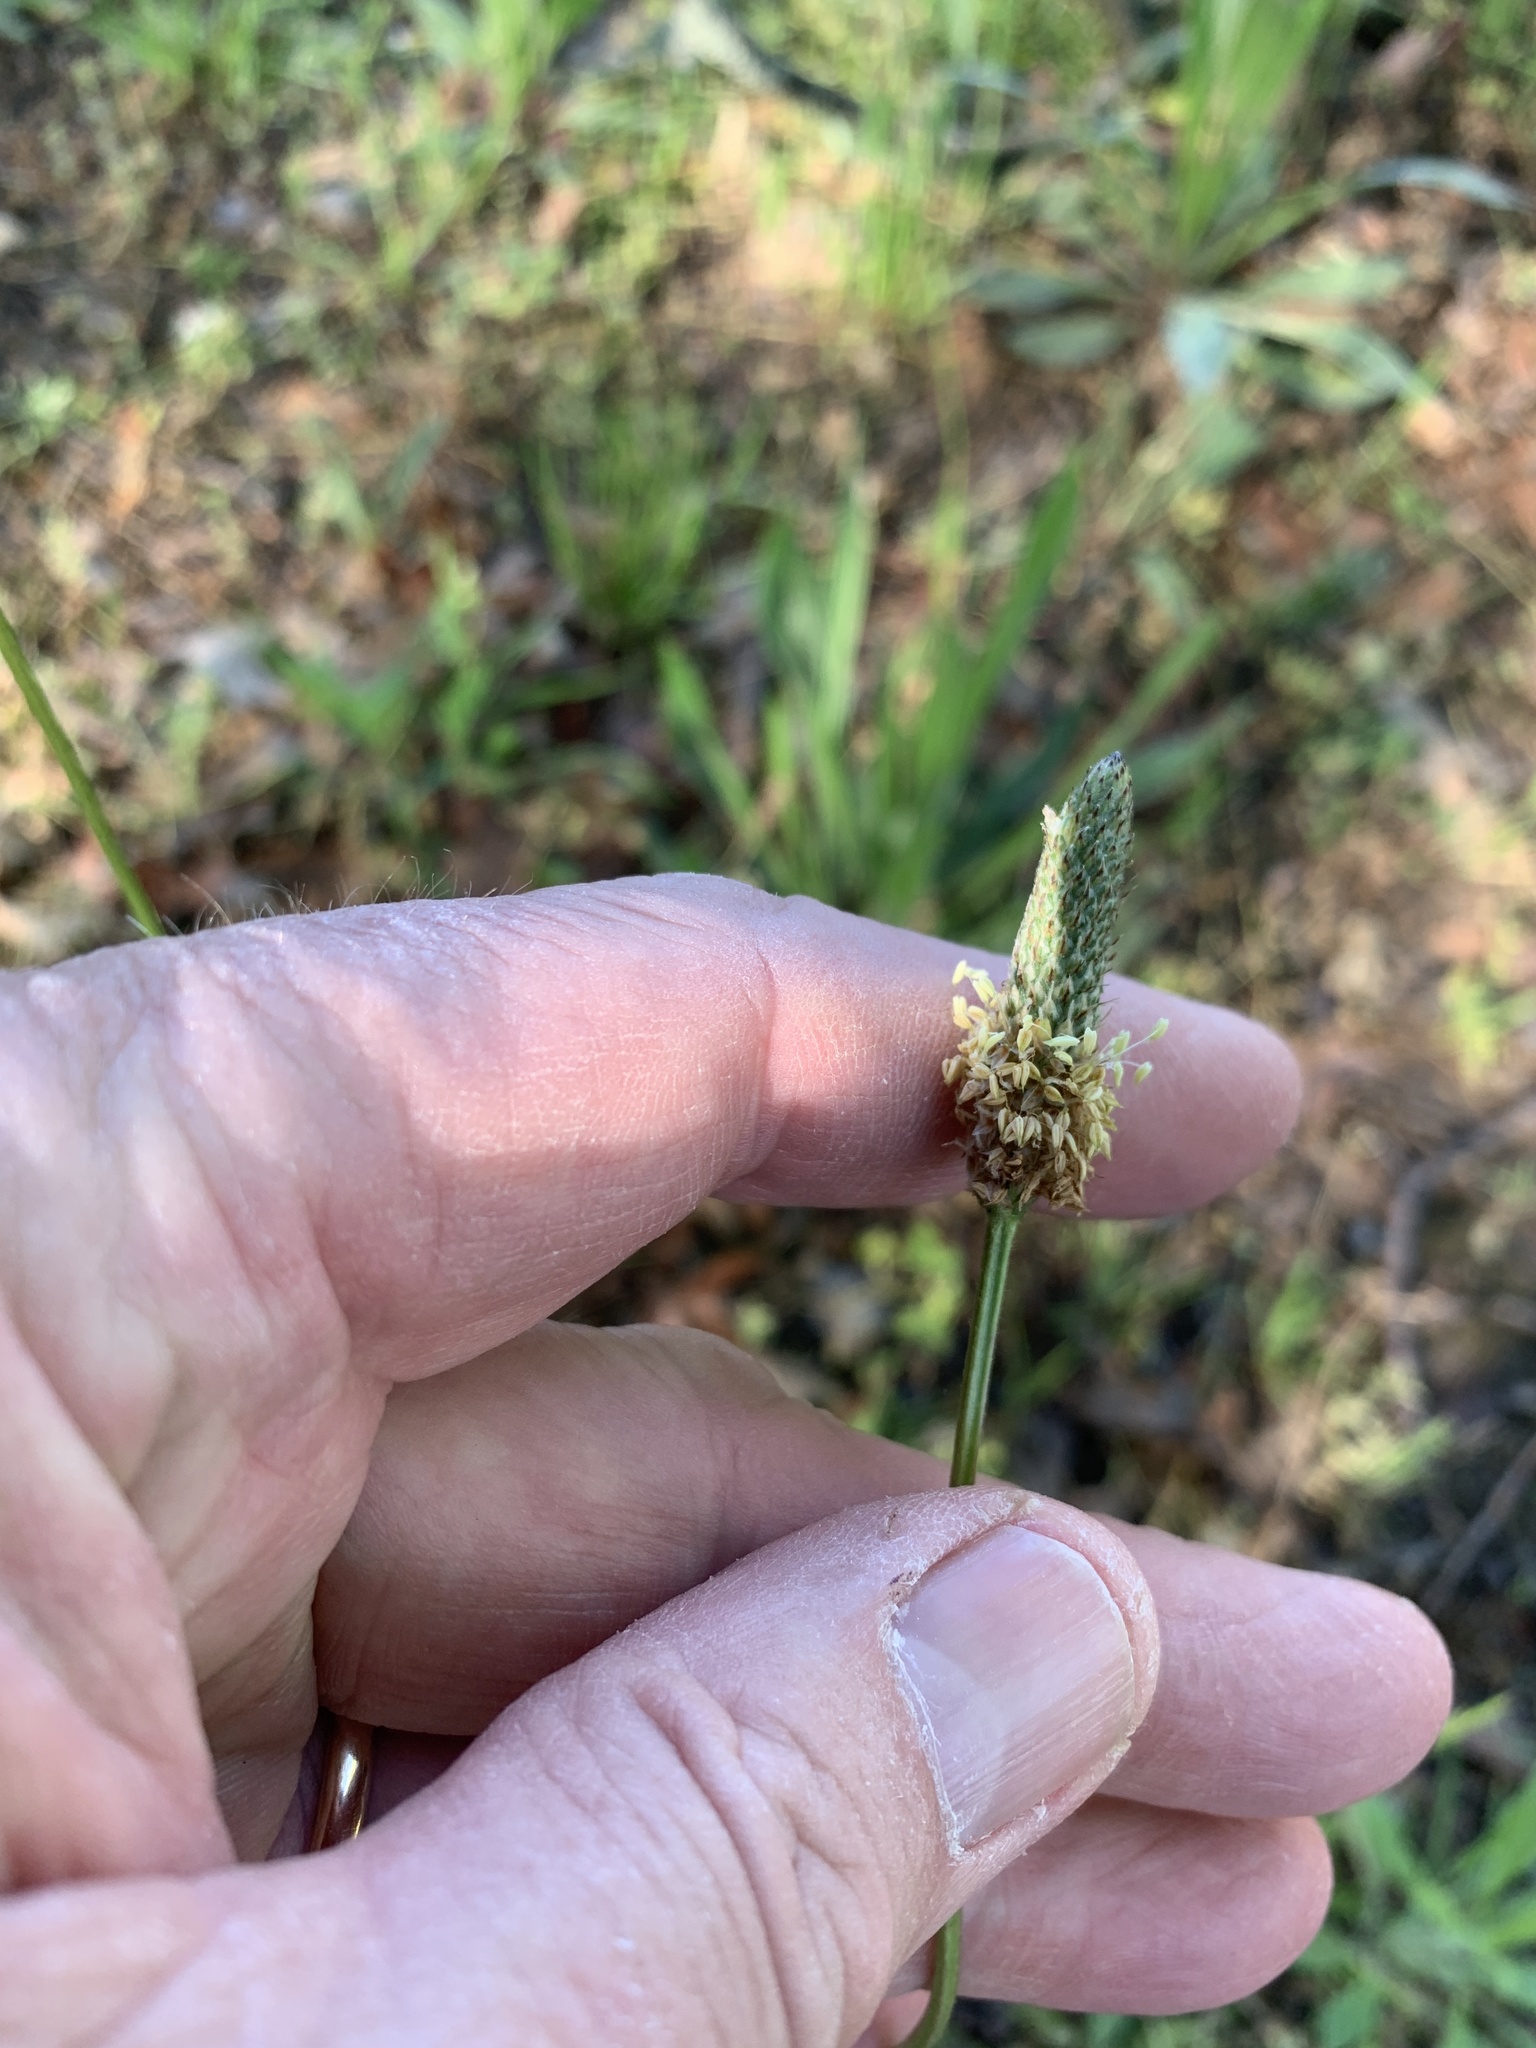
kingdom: Plantae
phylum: Tracheophyta
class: Magnoliopsida
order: Lamiales
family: Plantaginaceae
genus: Plantago
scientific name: Plantago lanceolata
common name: Ribwort plantain
